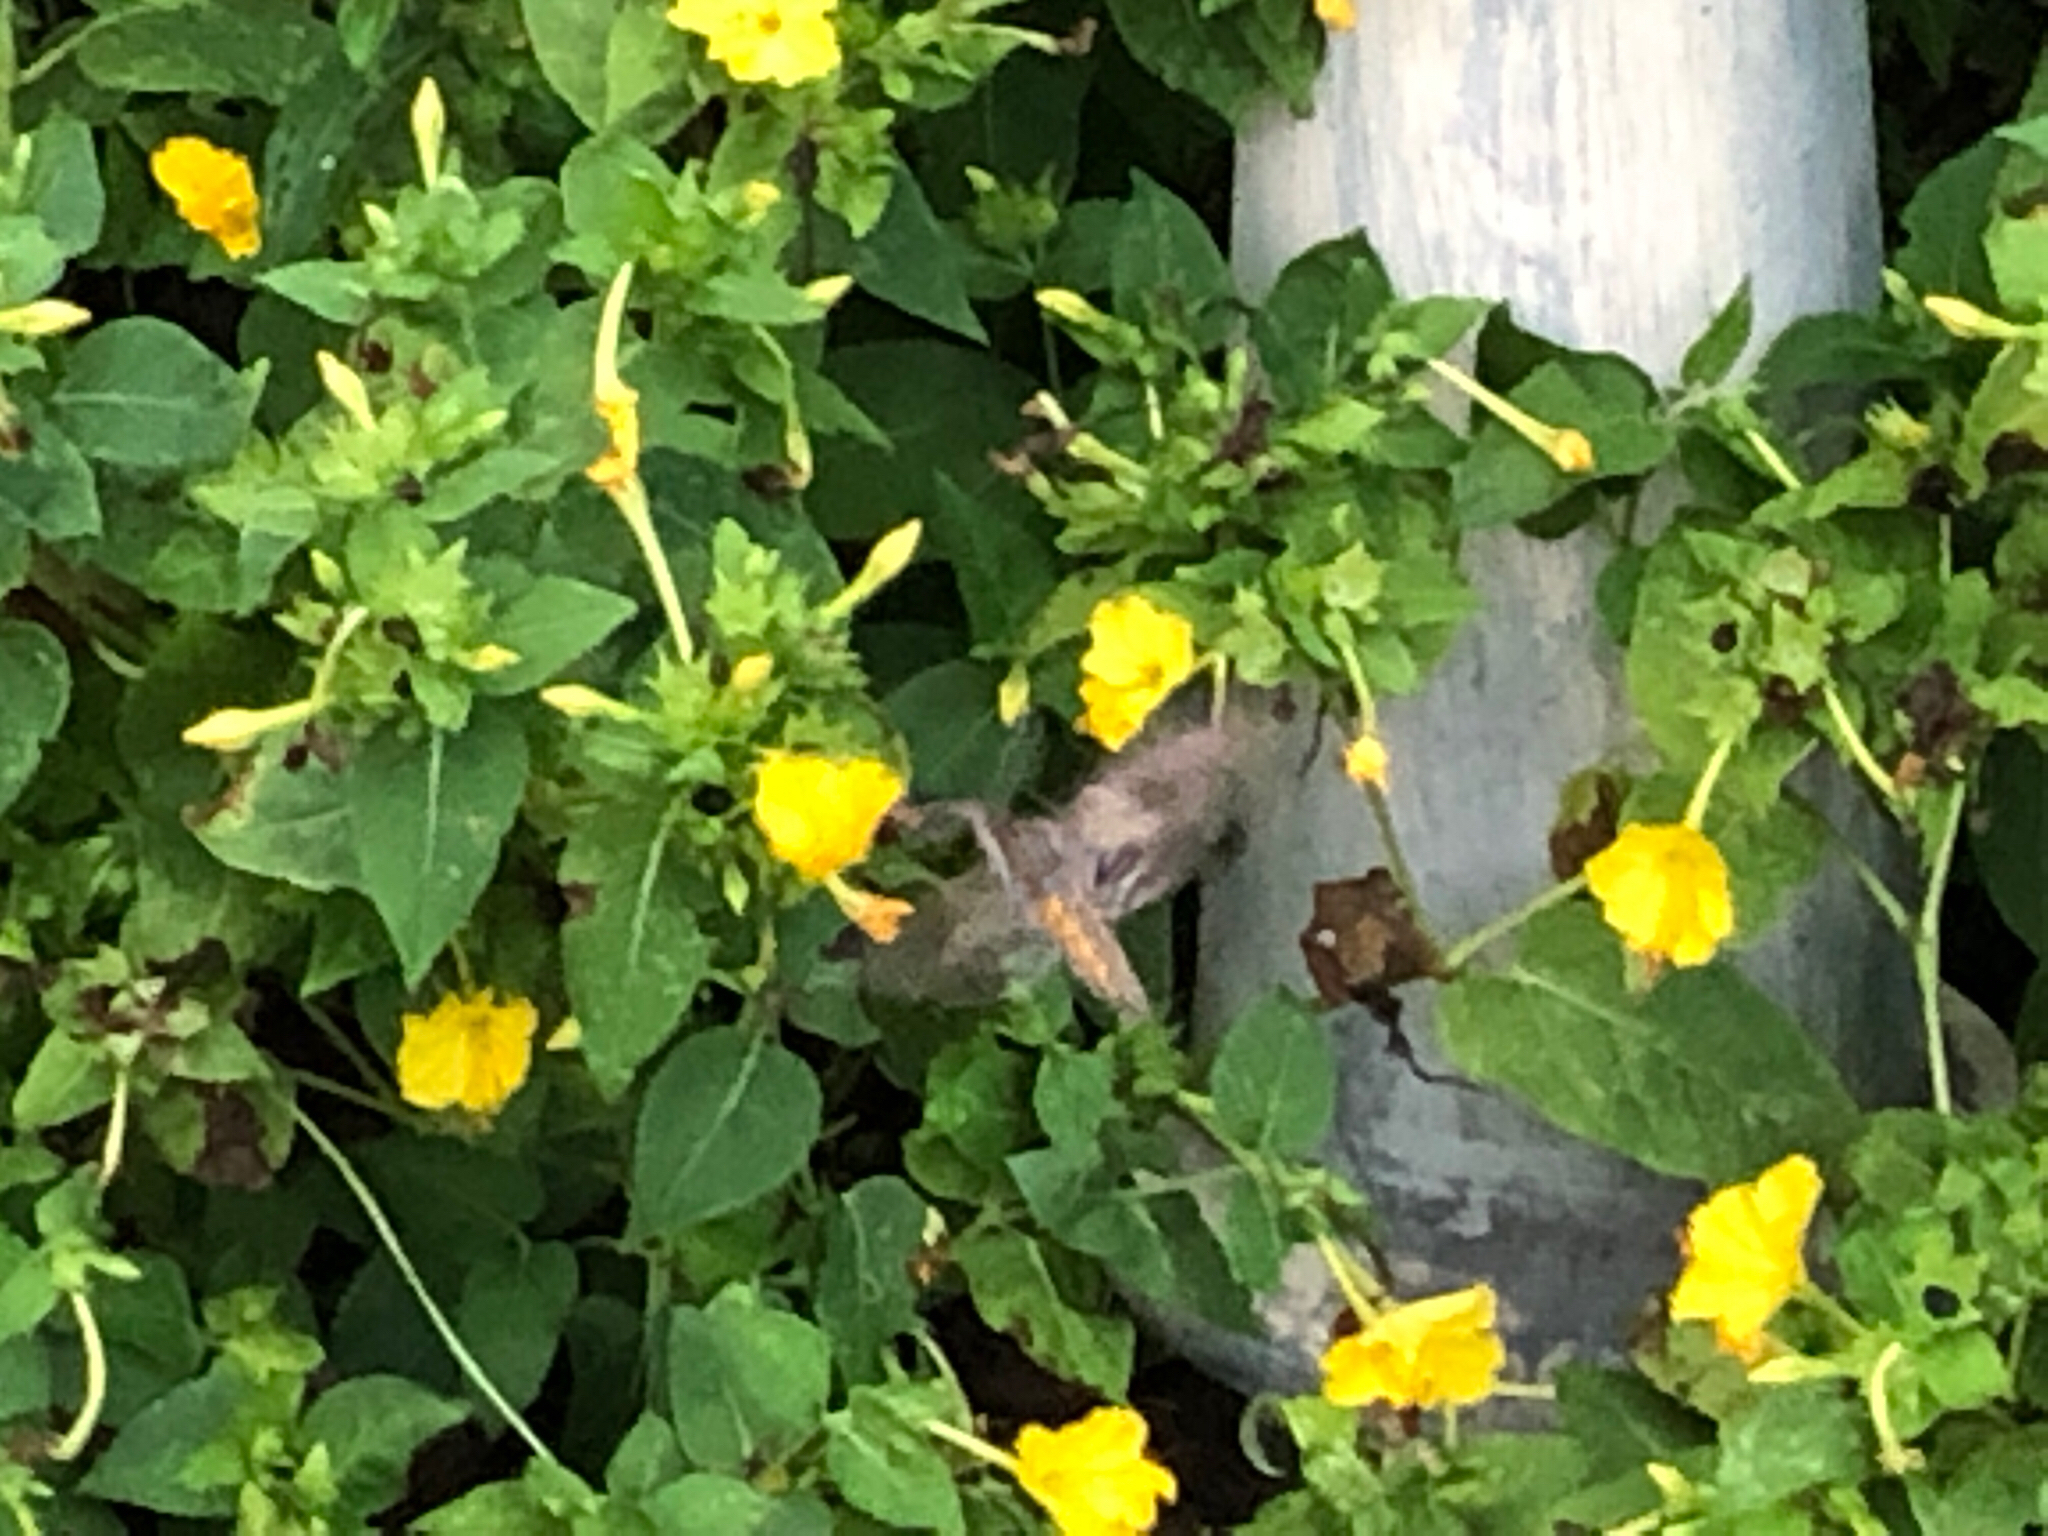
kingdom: Animalia
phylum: Arthropoda
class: Insecta
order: Lepidoptera
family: Sphingidae
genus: Manduca
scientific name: Manduca sexta
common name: Carolina sphinx
